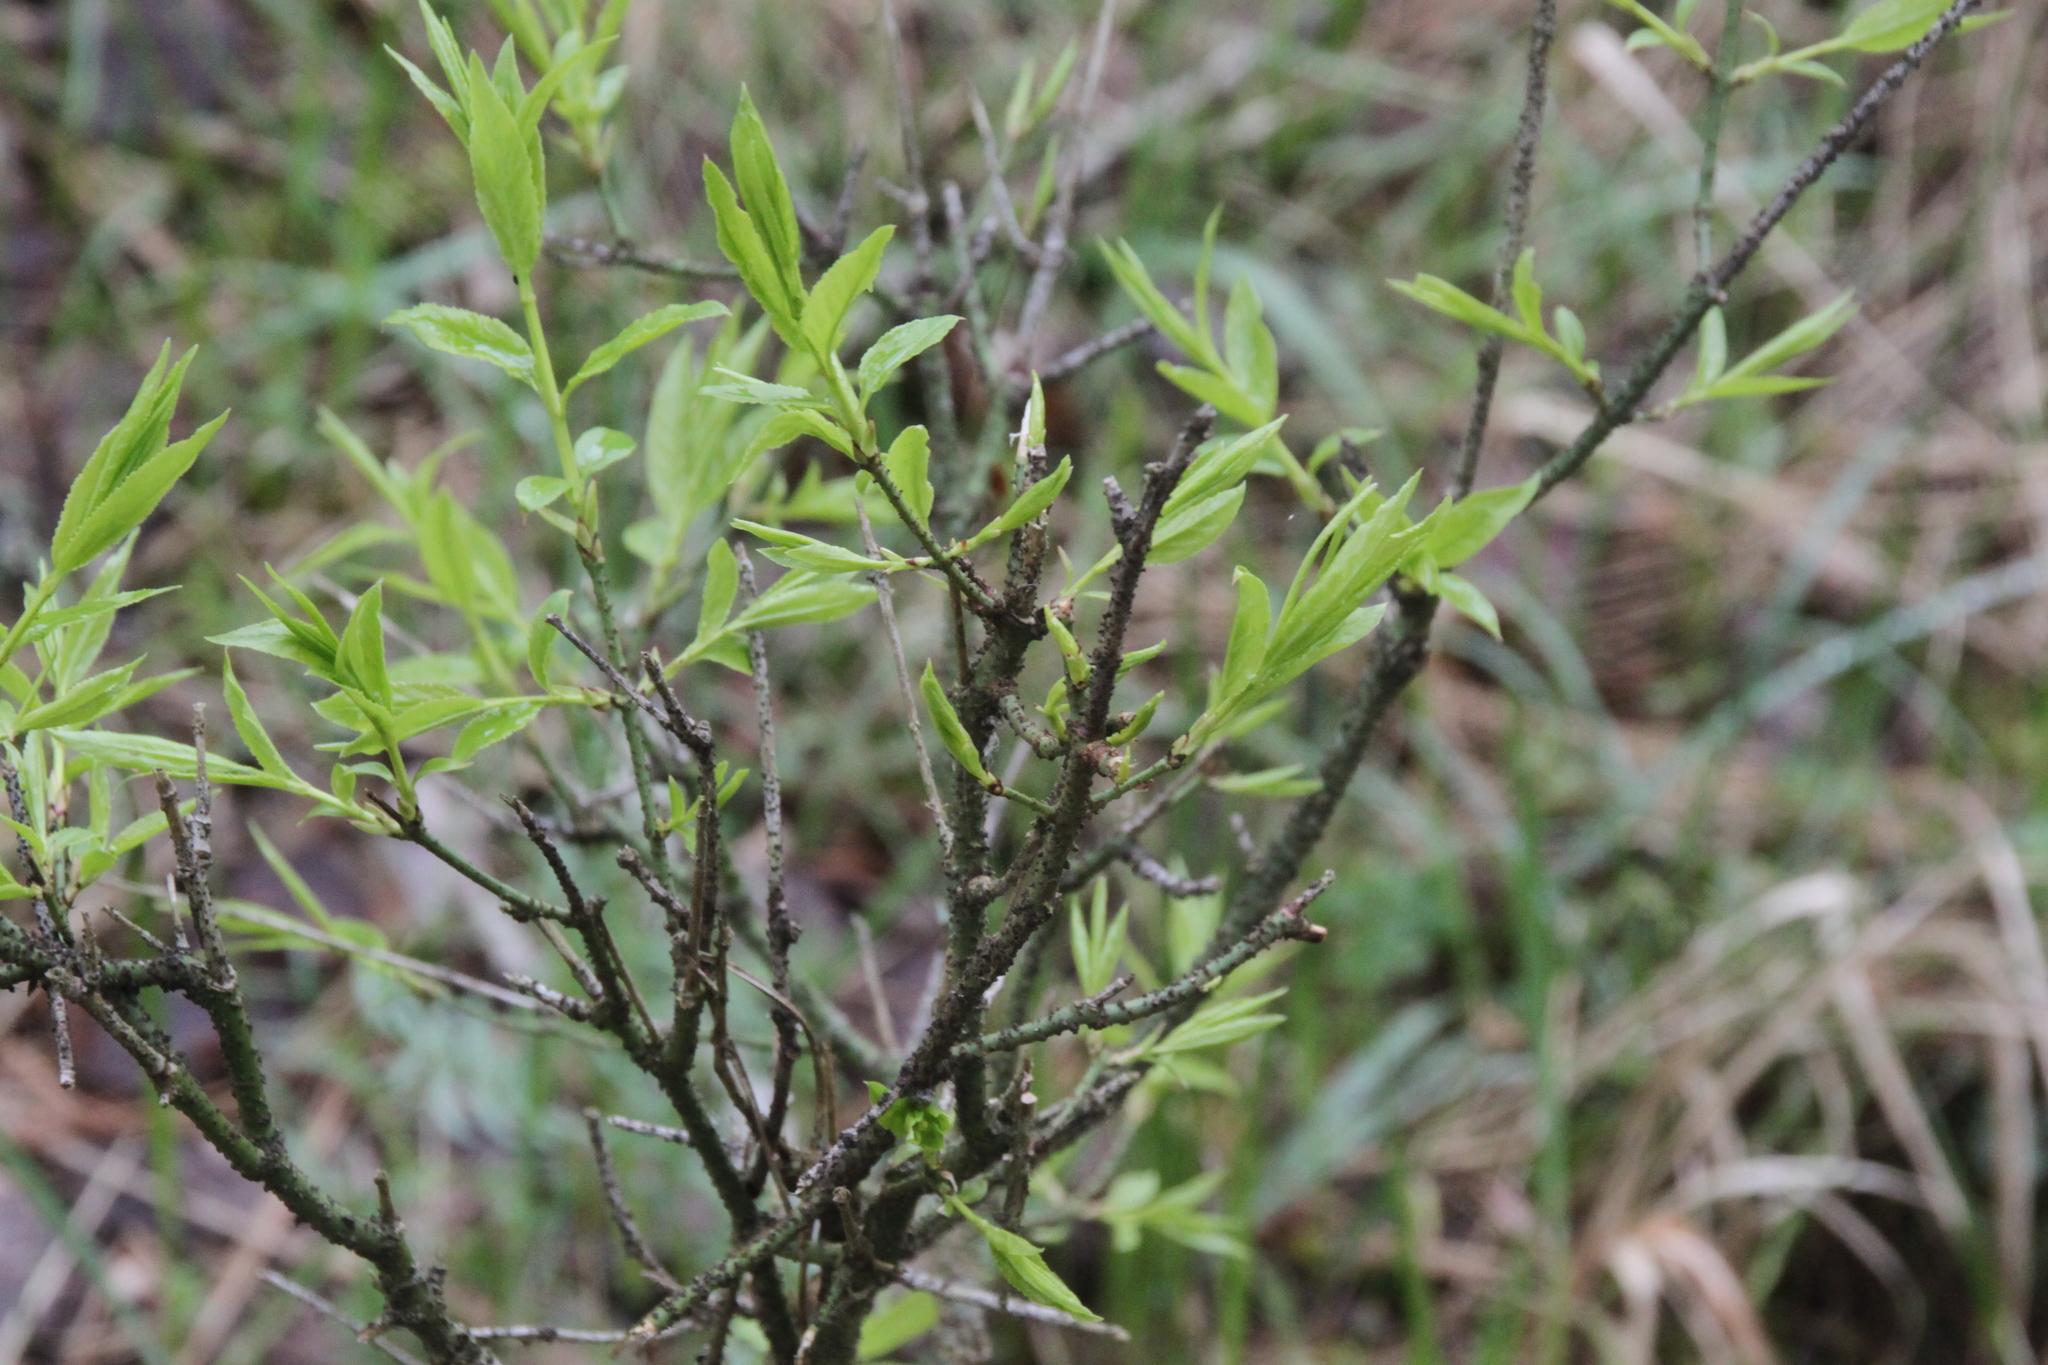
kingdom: Plantae
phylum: Tracheophyta
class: Magnoliopsida
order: Celastrales
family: Celastraceae
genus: Euonymus
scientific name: Euonymus verrucosus
